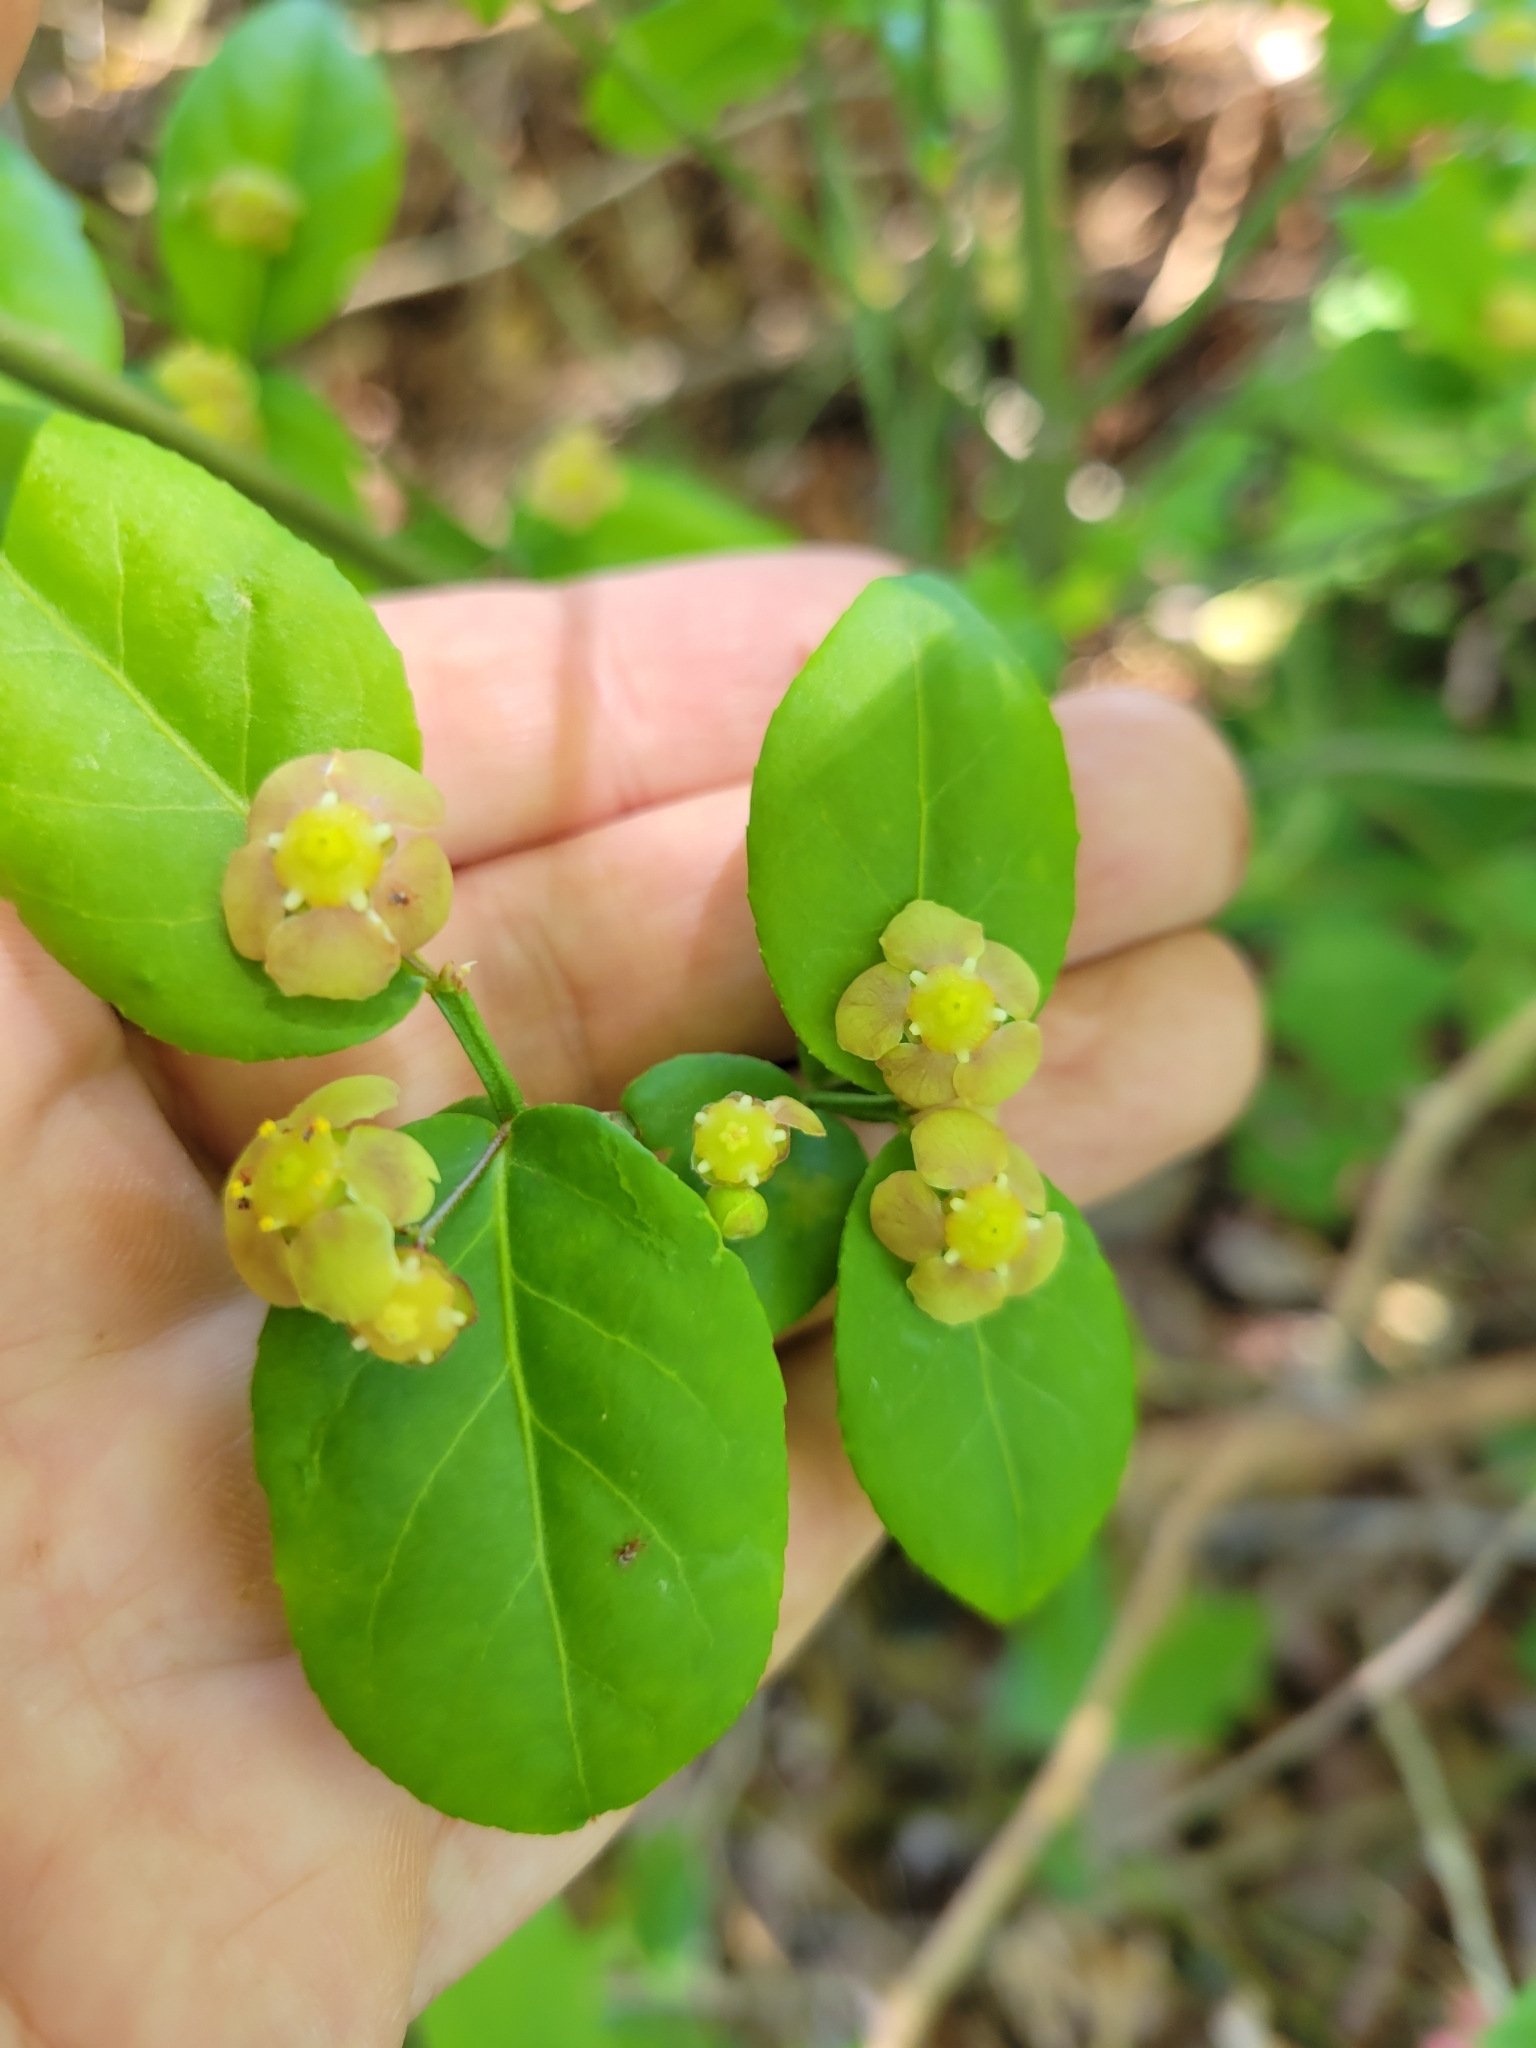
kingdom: Plantae
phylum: Tracheophyta
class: Magnoliopsida
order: Celastrales
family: Celastraceae
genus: Euonymus
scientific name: Euonymus americanus
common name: Bursting-heart
